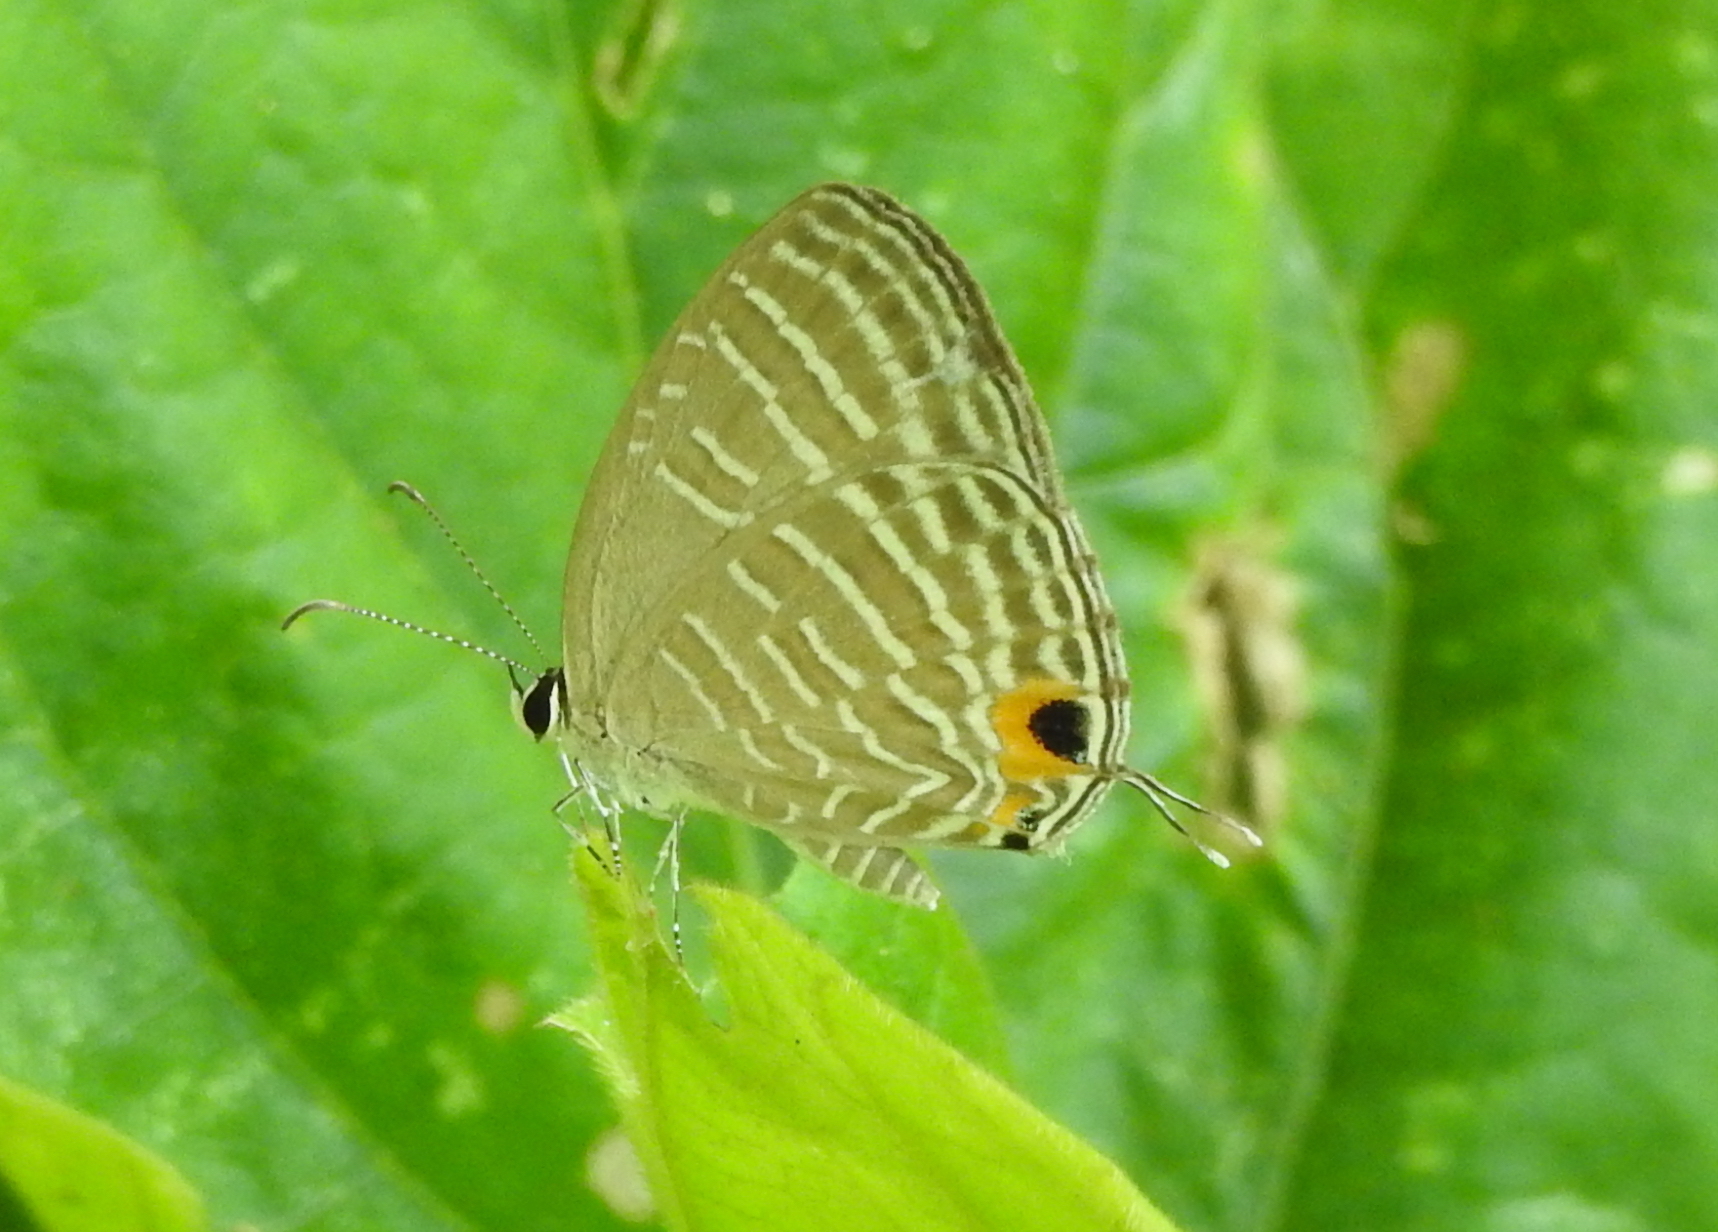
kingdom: Animalia
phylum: Arthropoda
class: Insecta
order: Lepidoptera
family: Lycaenidae
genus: Jamides
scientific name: Jamides celeno
